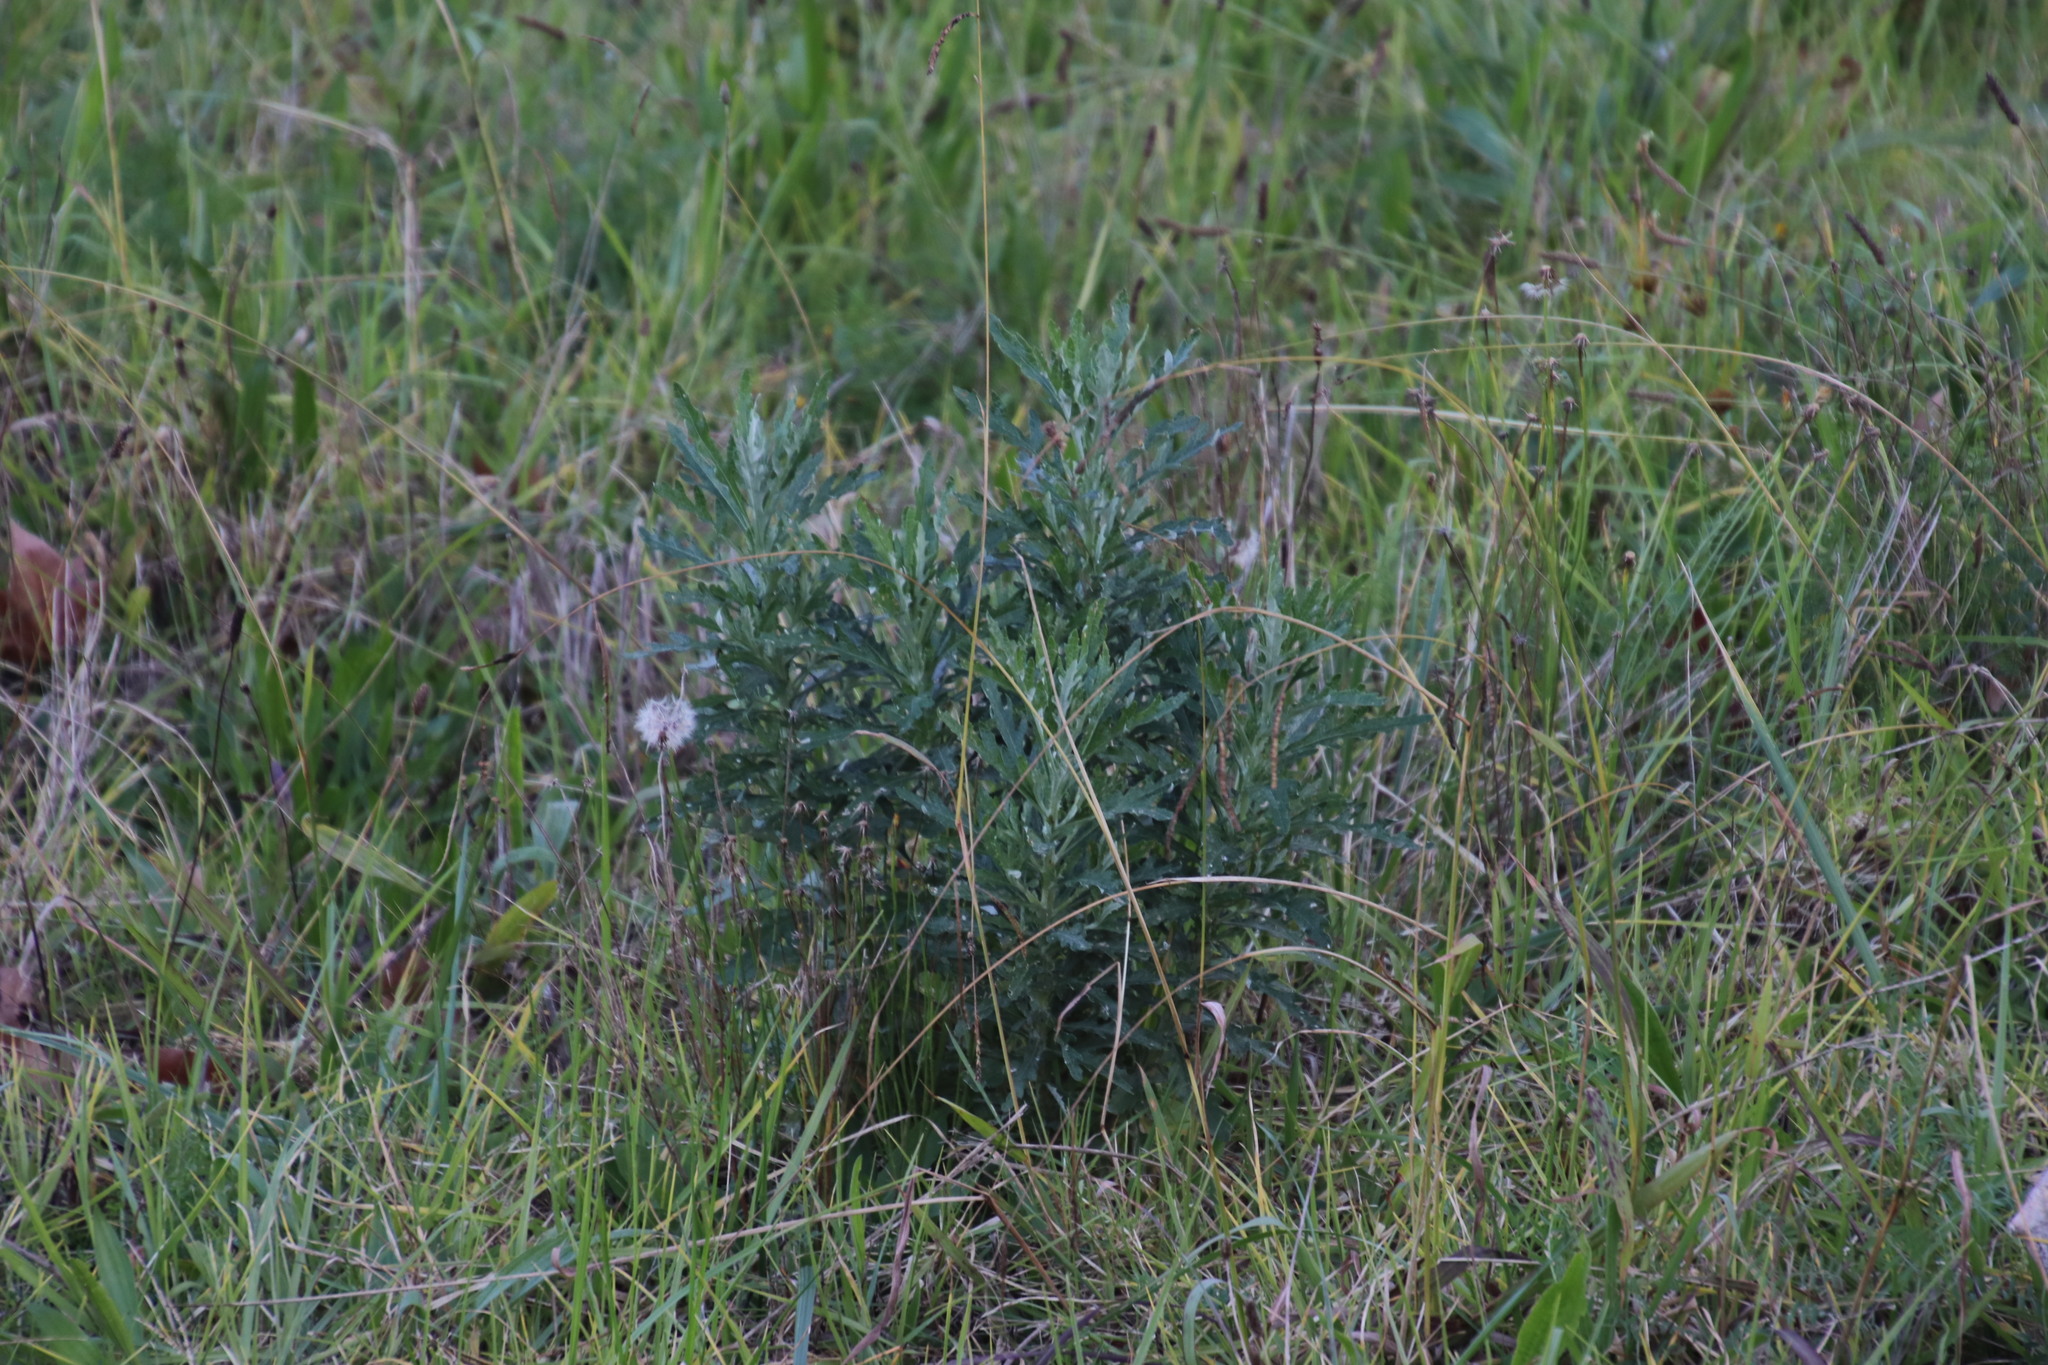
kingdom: Plantae
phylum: Tracheophyta
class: Magnoliopsida
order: Asterales
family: Asteraceae
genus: Senecio
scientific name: Senecio pterophorus
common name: Shoddy ragwort
